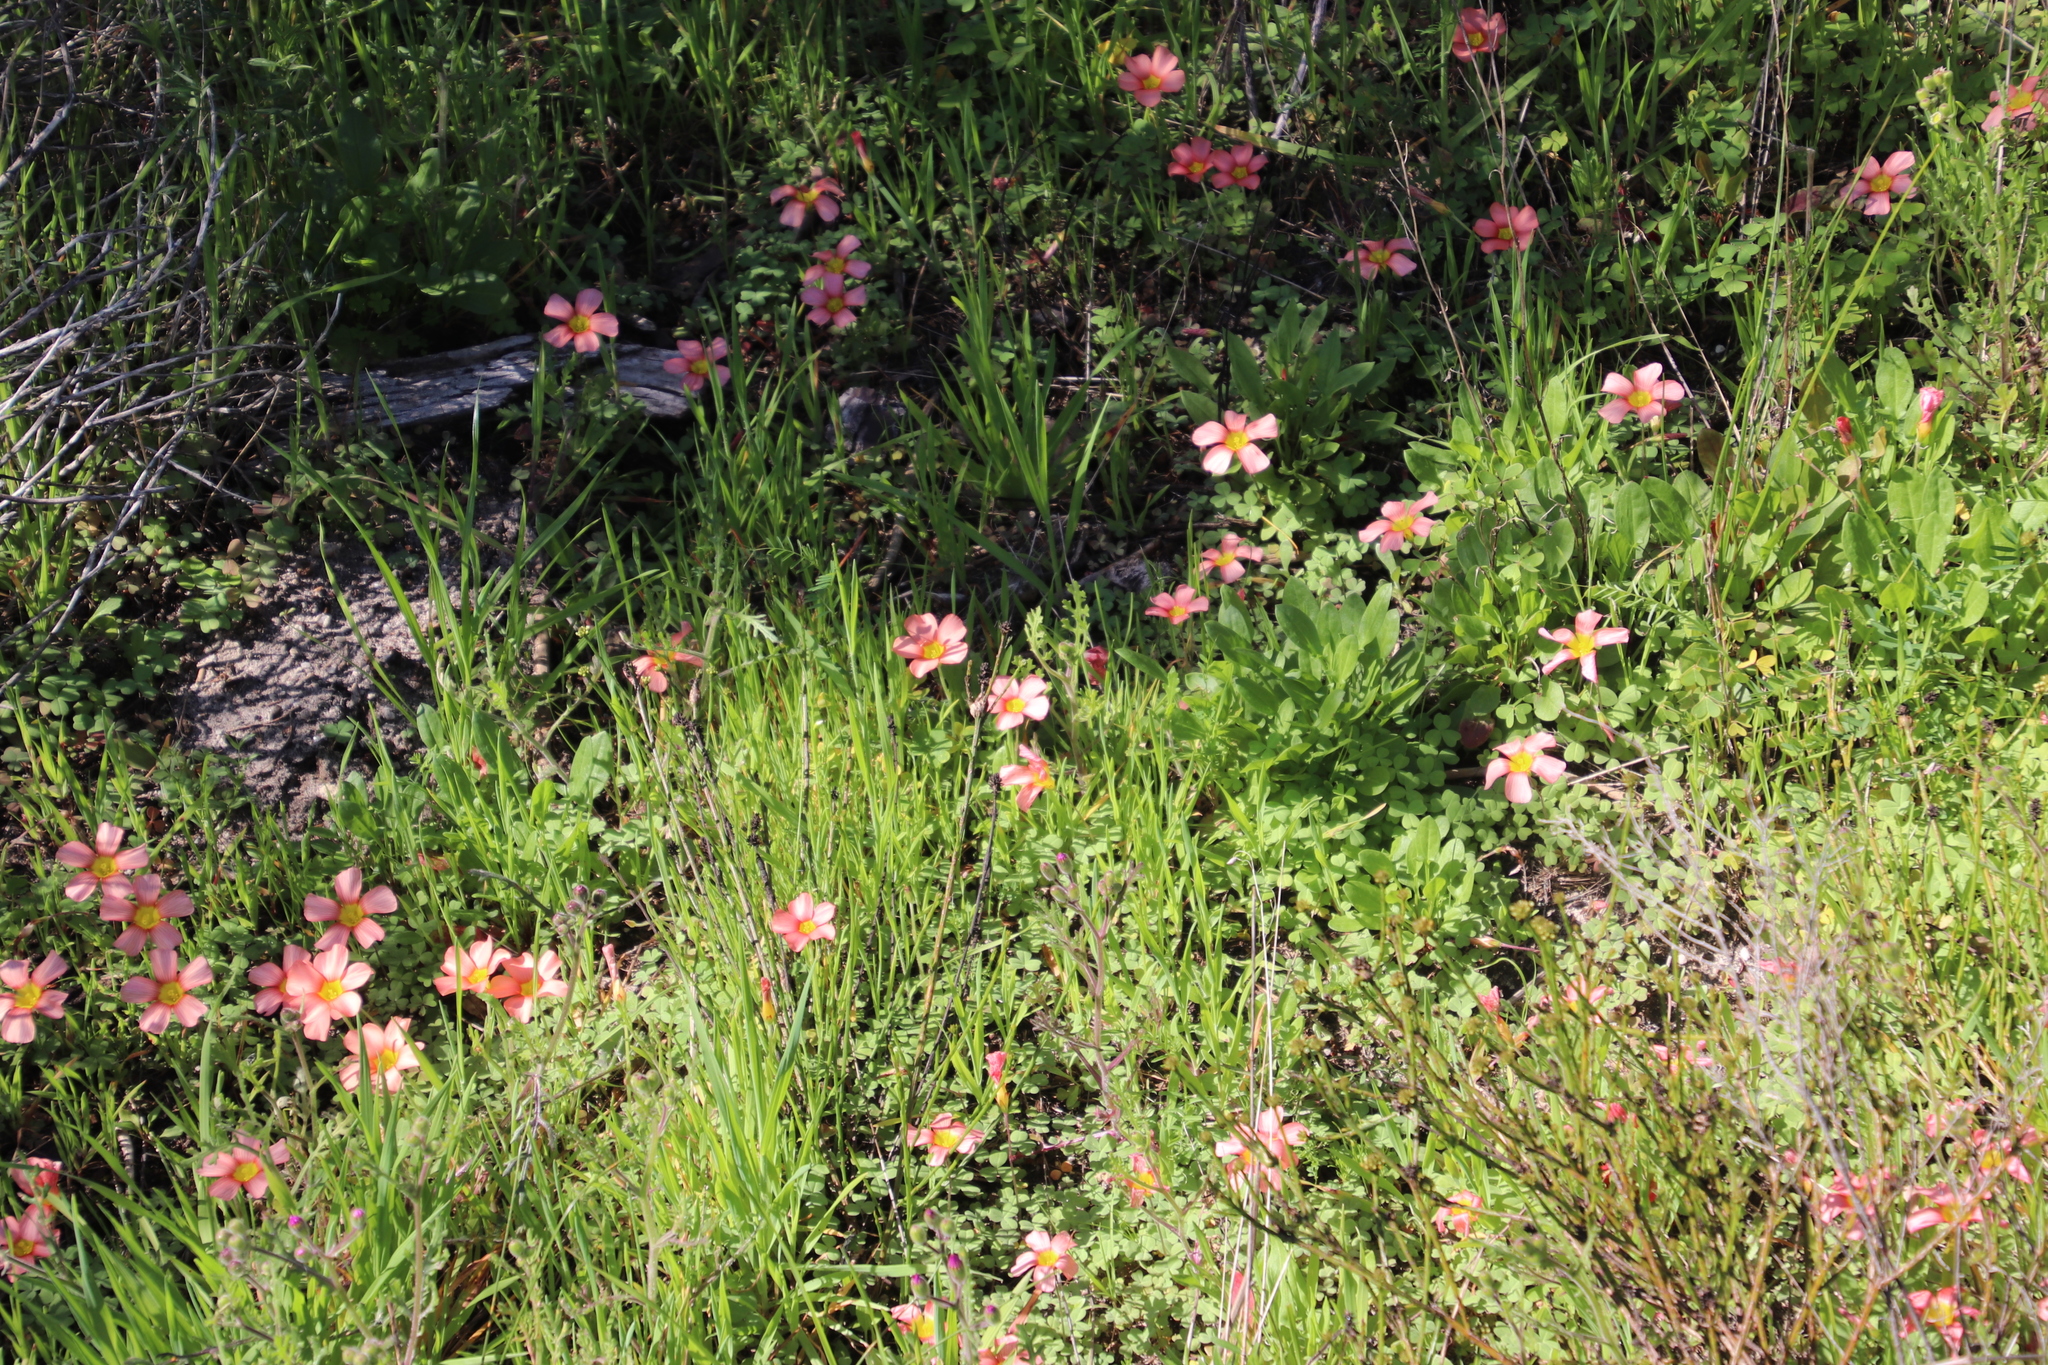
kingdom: Plantae
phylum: Tracheophyta
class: Magnoliopsida
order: Oxalidales
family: Oxalidaceae
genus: Oxalis
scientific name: Oxalis obtusa
